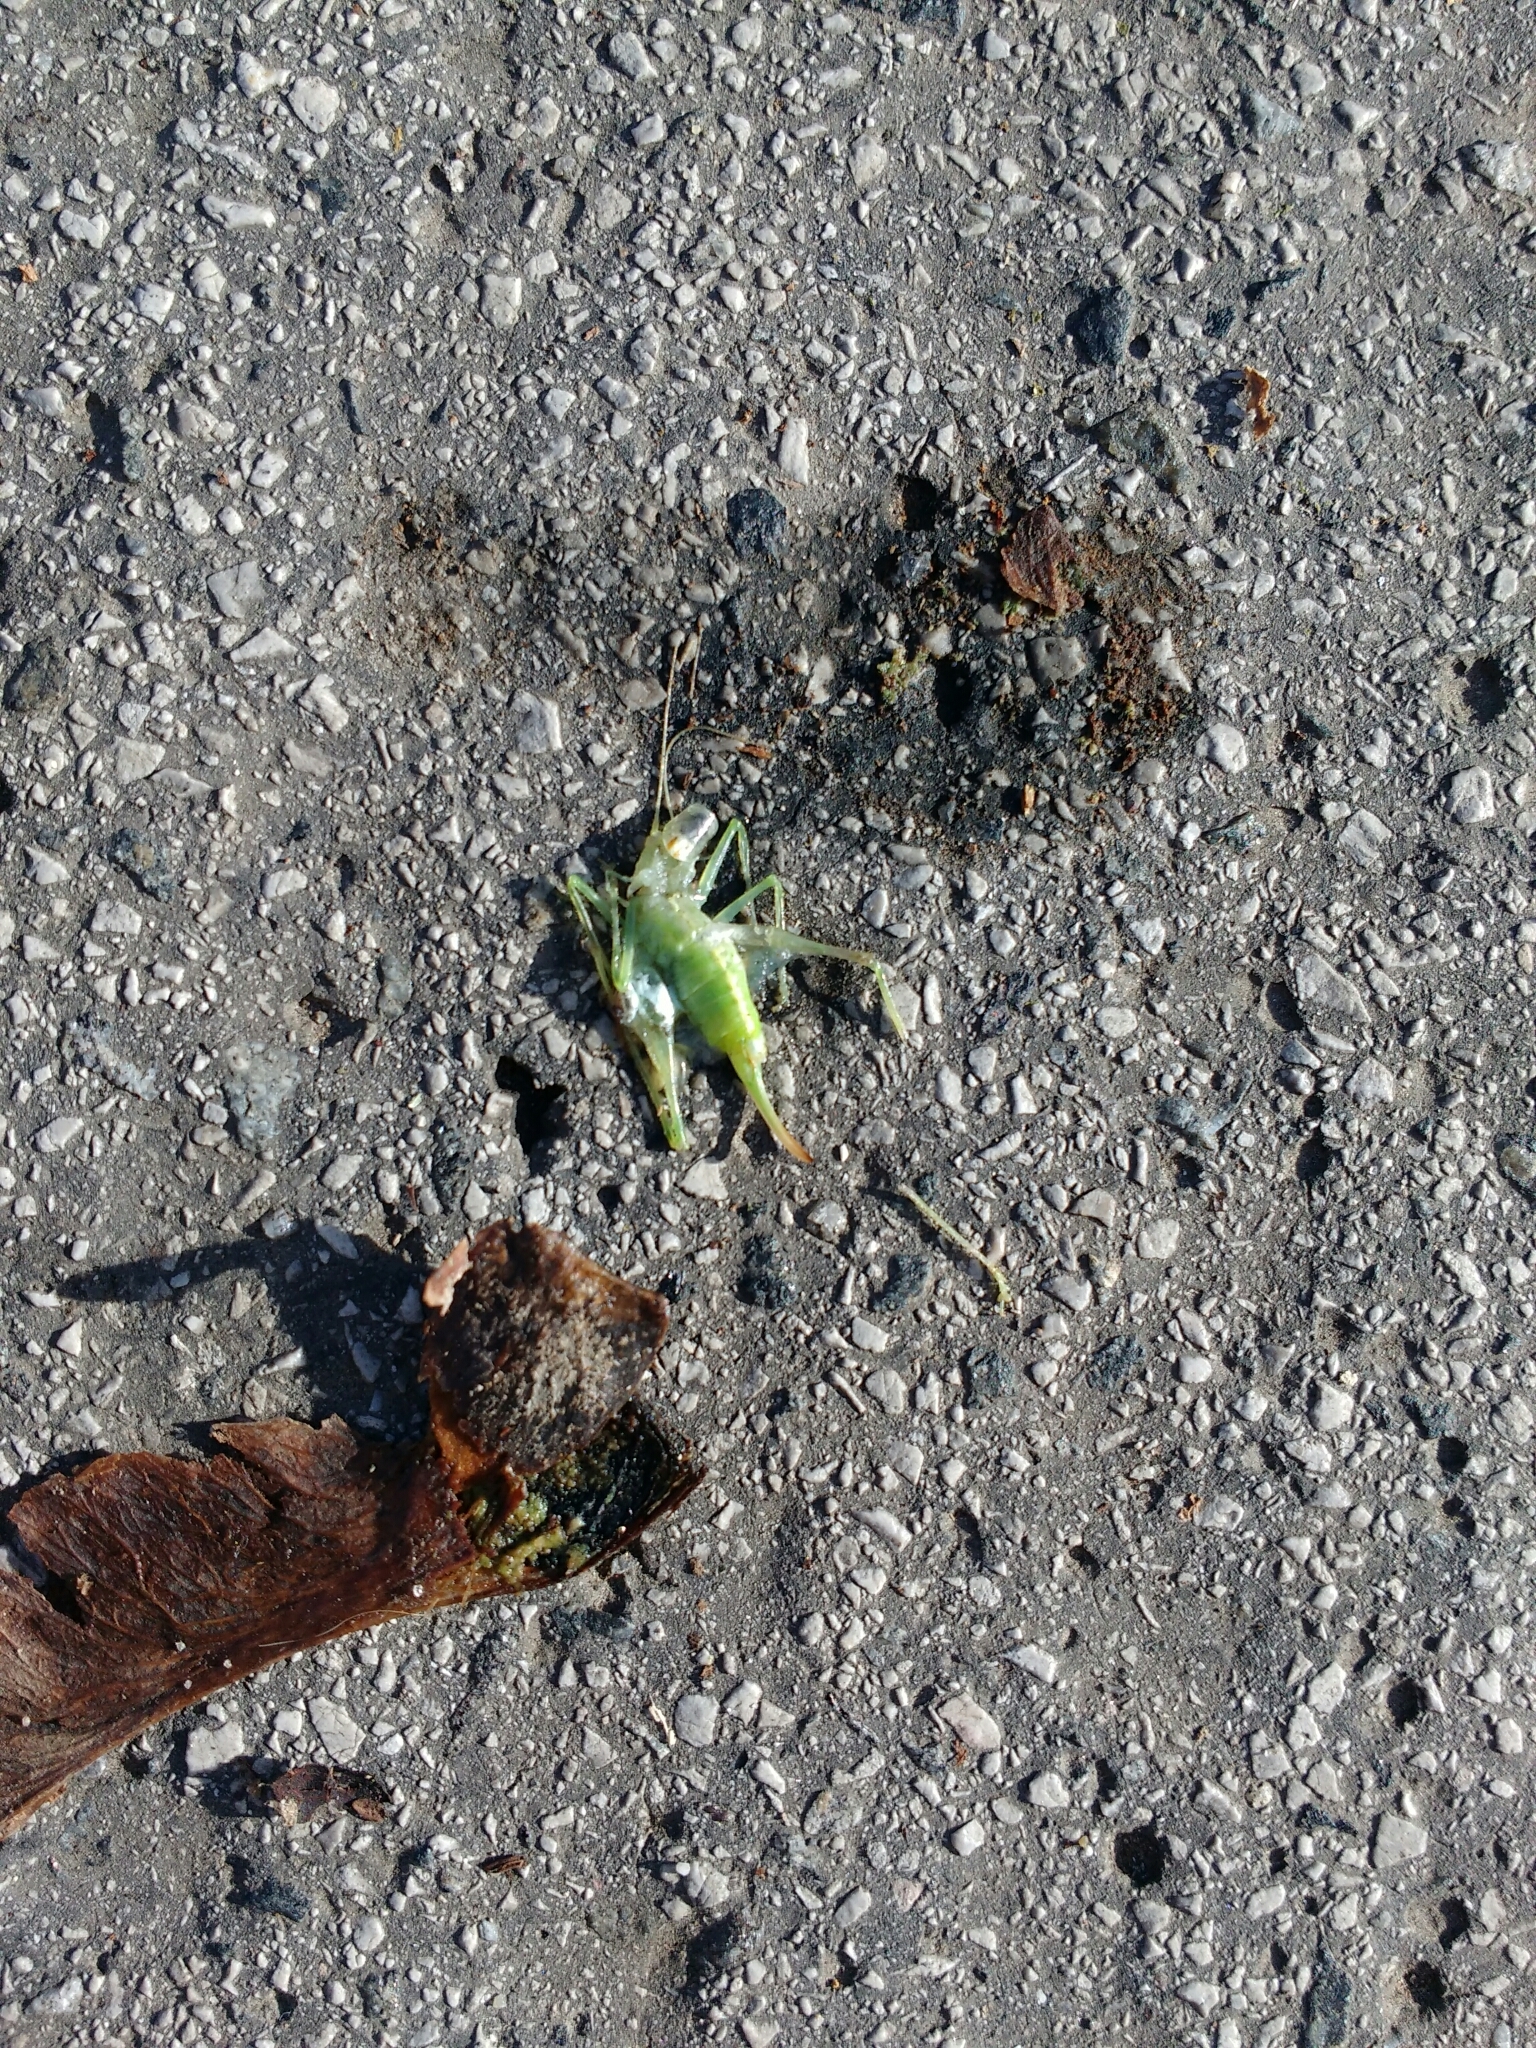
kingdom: Animalia
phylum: Arthropoda
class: Insecta
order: Orthoptera
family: Tettigoniidae
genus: Meconema
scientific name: Meconema meridionale
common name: Southern oak bush-cricket
